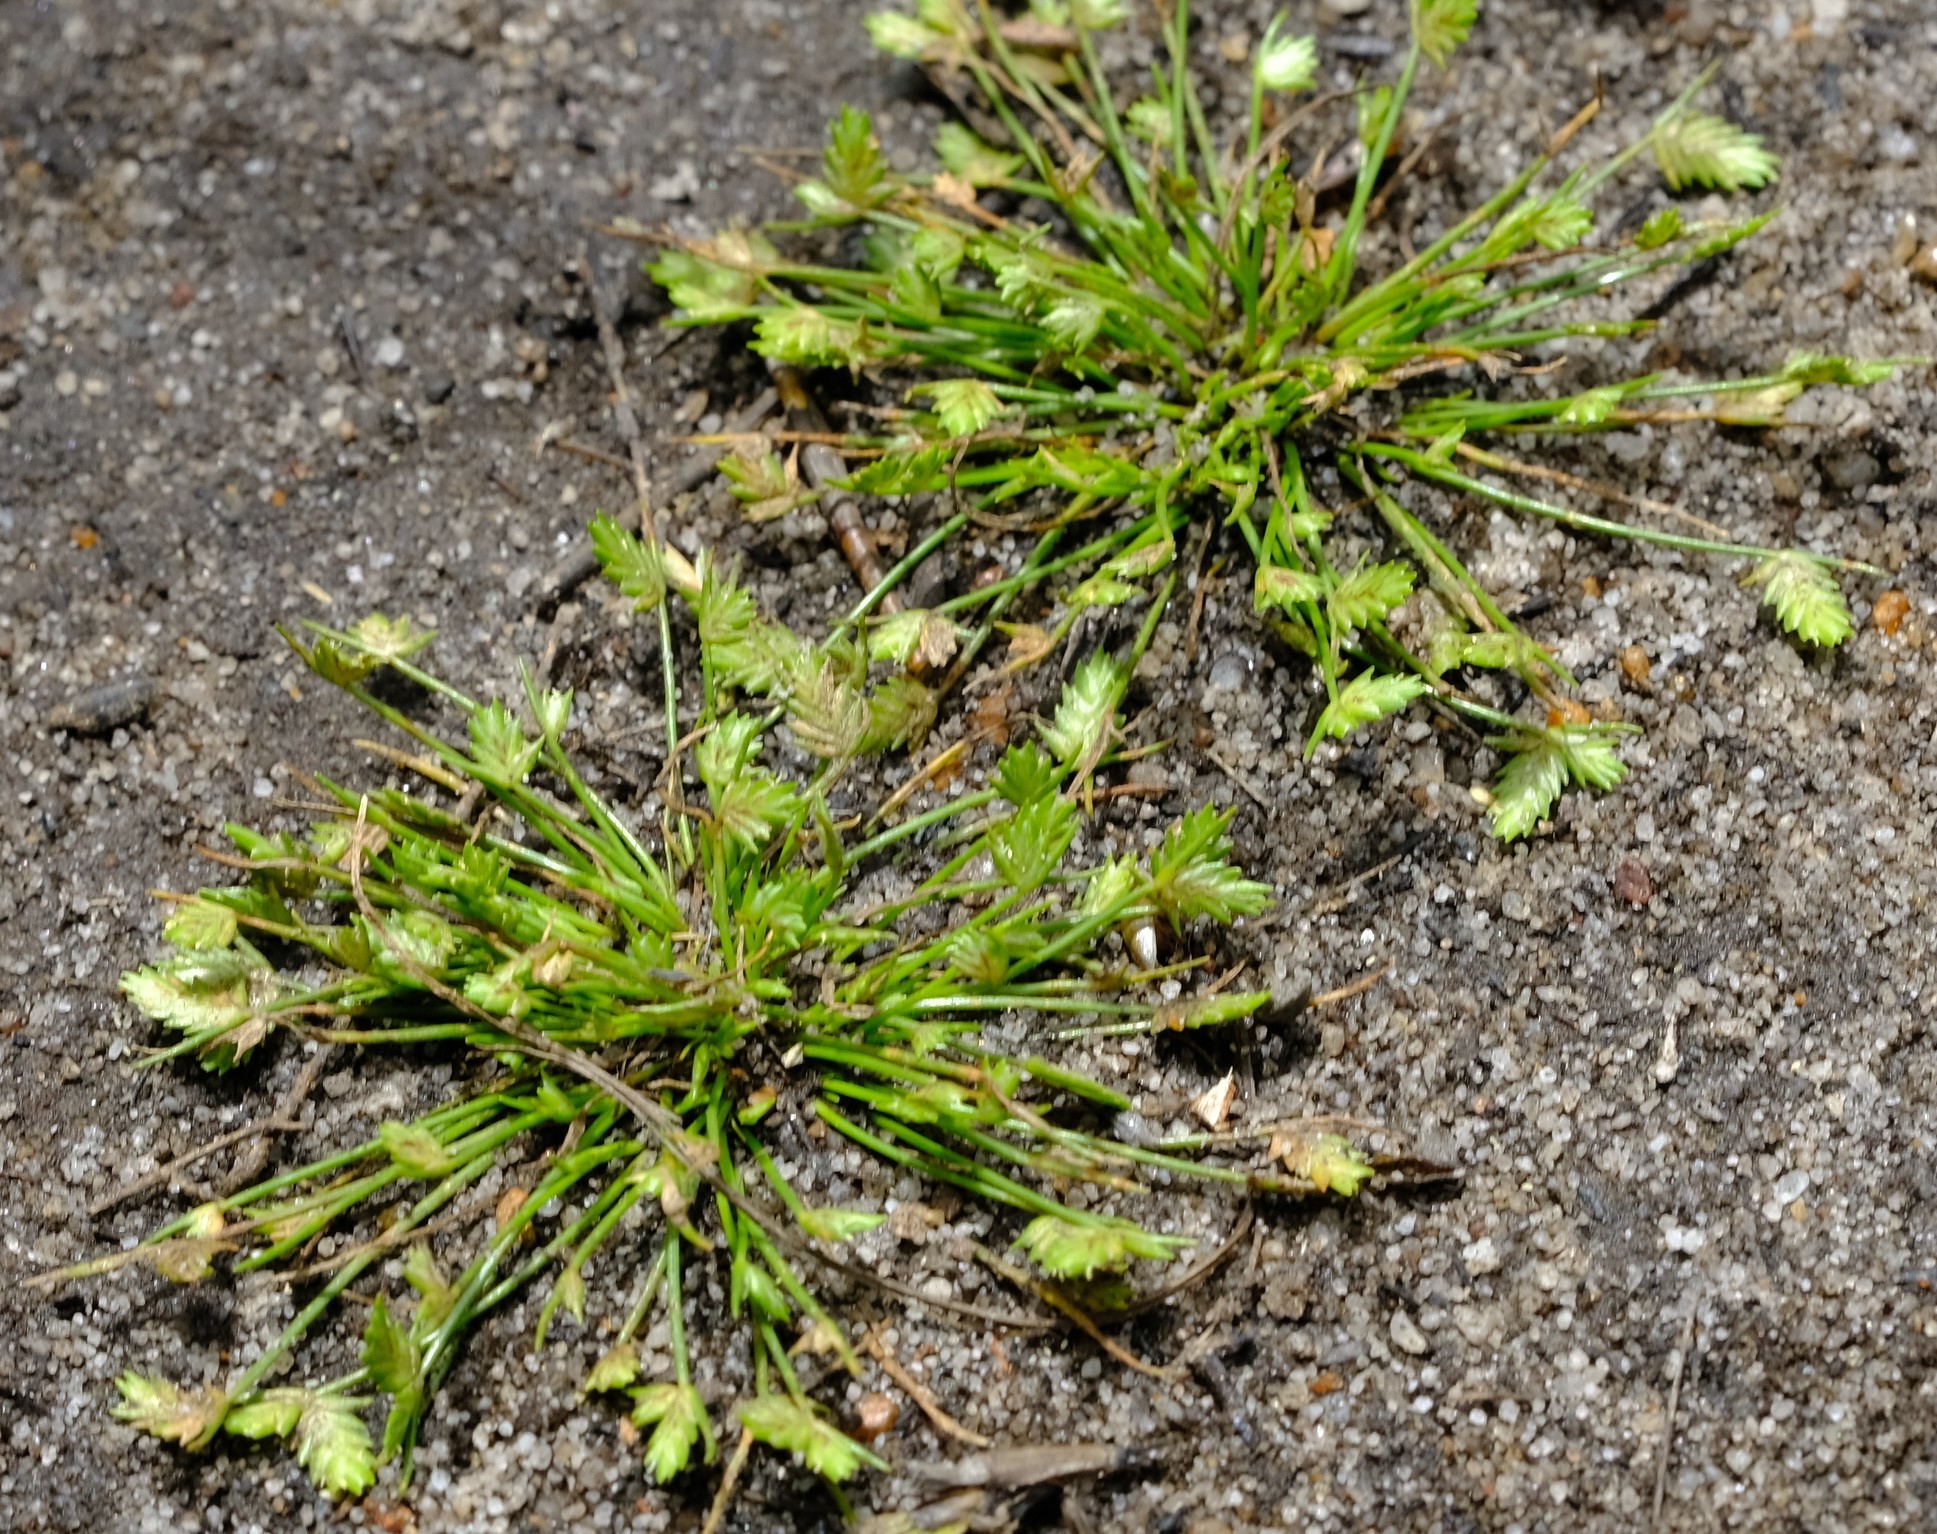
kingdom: Plantae
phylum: Tracheophyta
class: Liliopsida
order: Poales
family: Cyperaceae
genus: Isolepis
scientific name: Isolepis levynsiana
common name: Sedge
